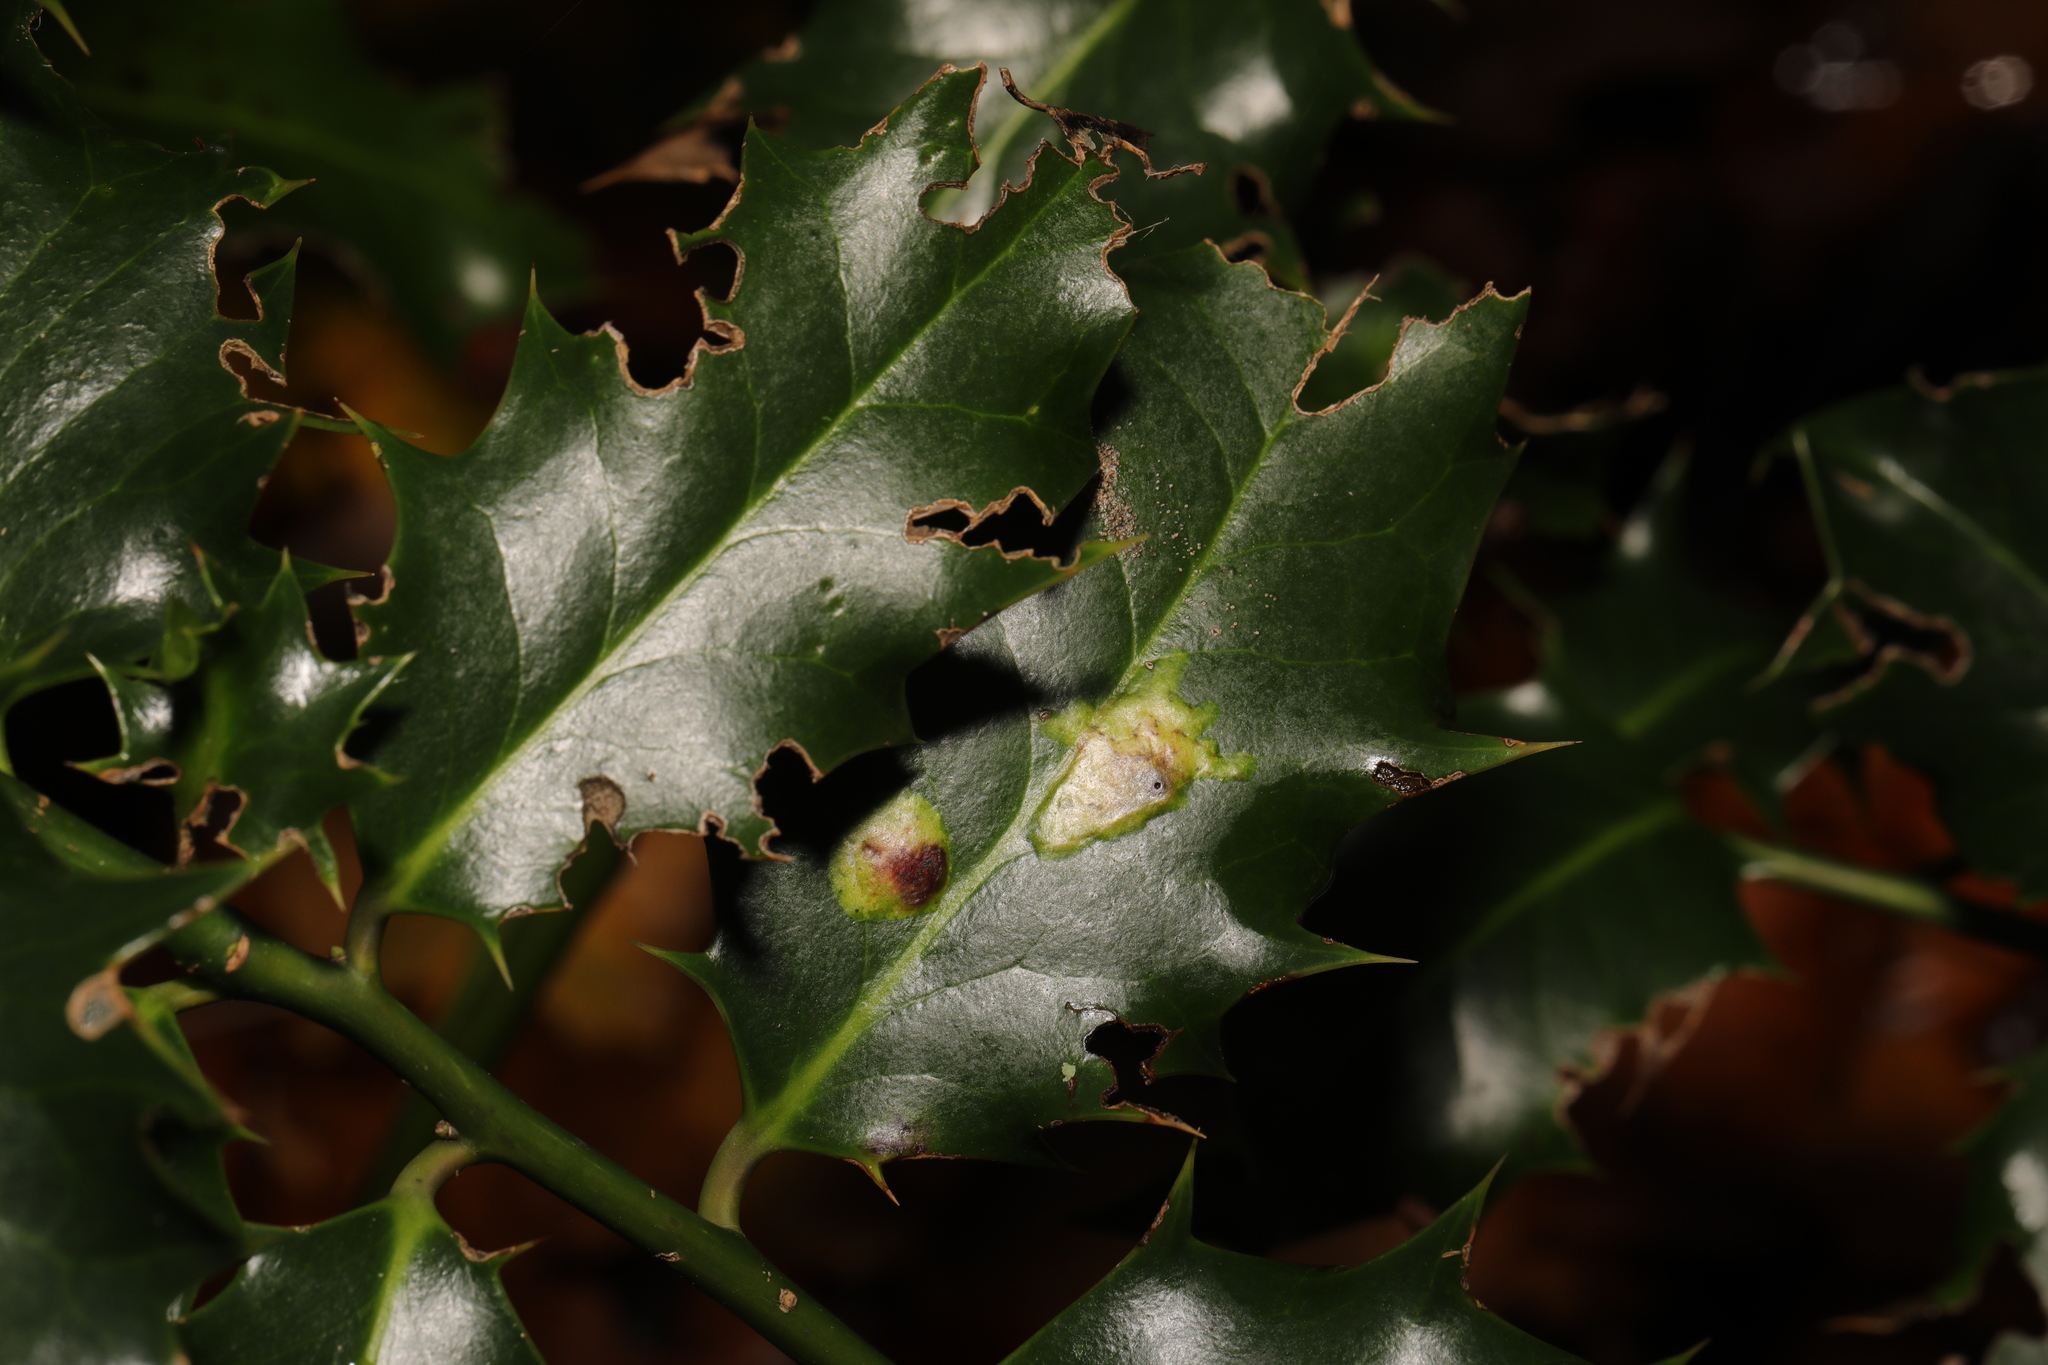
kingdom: Animalia
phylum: Arthropoda
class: Insecta
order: Diptera
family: Agromyzidae
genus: Phytomyza
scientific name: Phytomyza ilicis
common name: Holly leafminer
